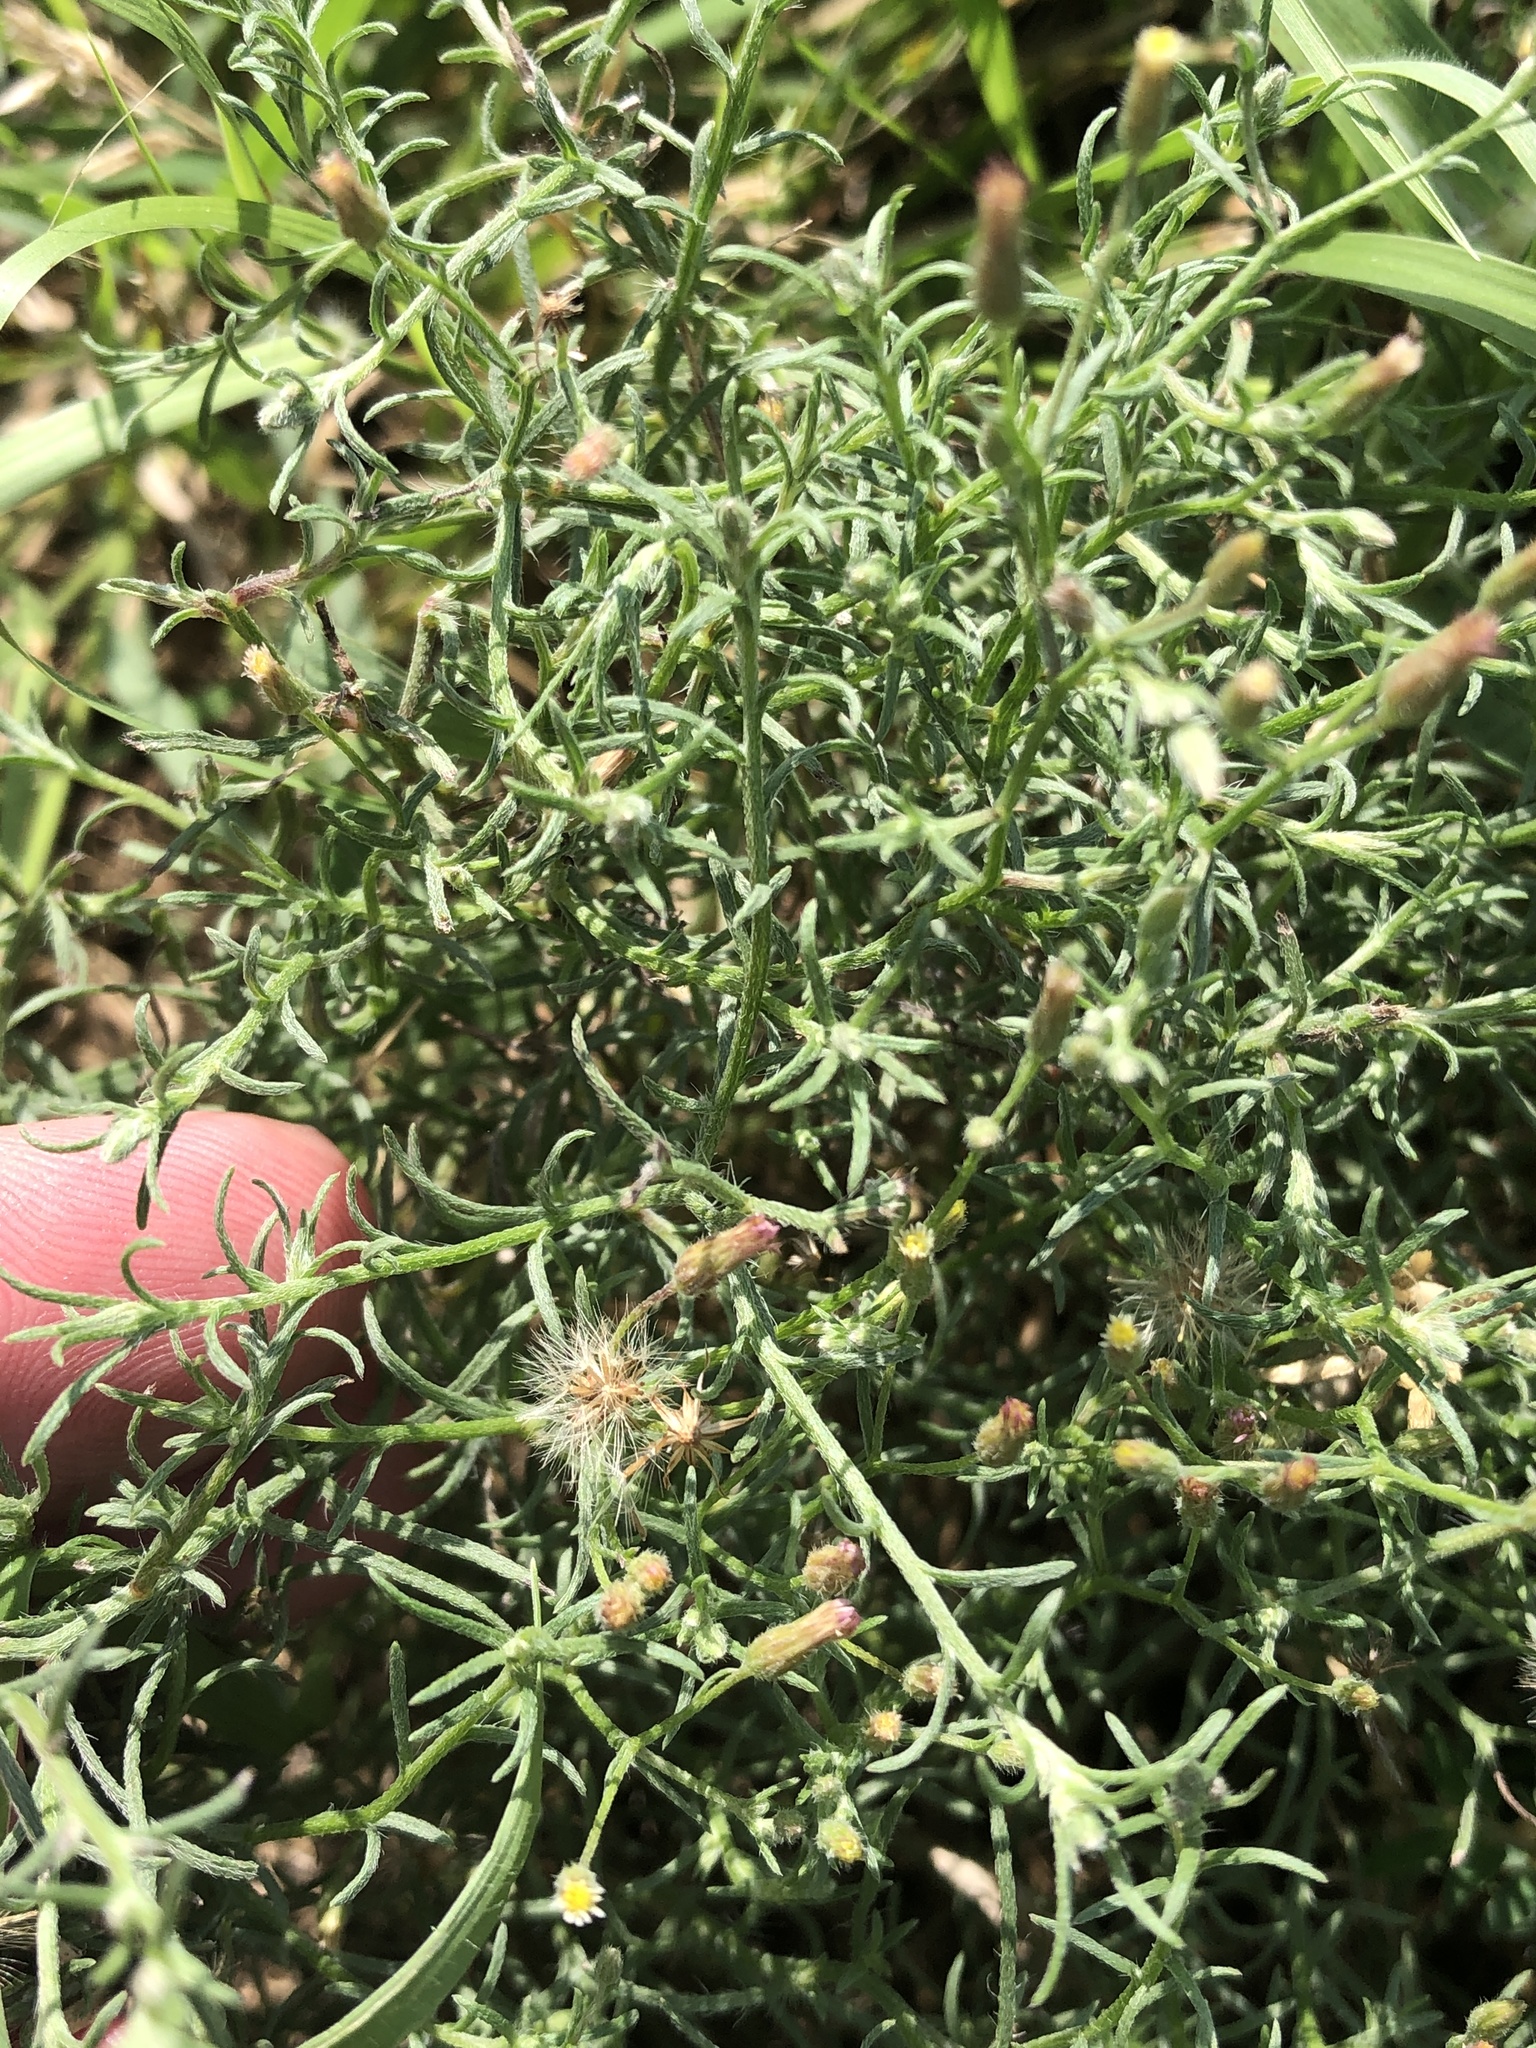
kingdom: Plantae
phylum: Tracheophyta
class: Magnoliopsida
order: Asterales
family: Asteraceae
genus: Erigeron
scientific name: Erigeron divaricatus
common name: Dwarf conyza
